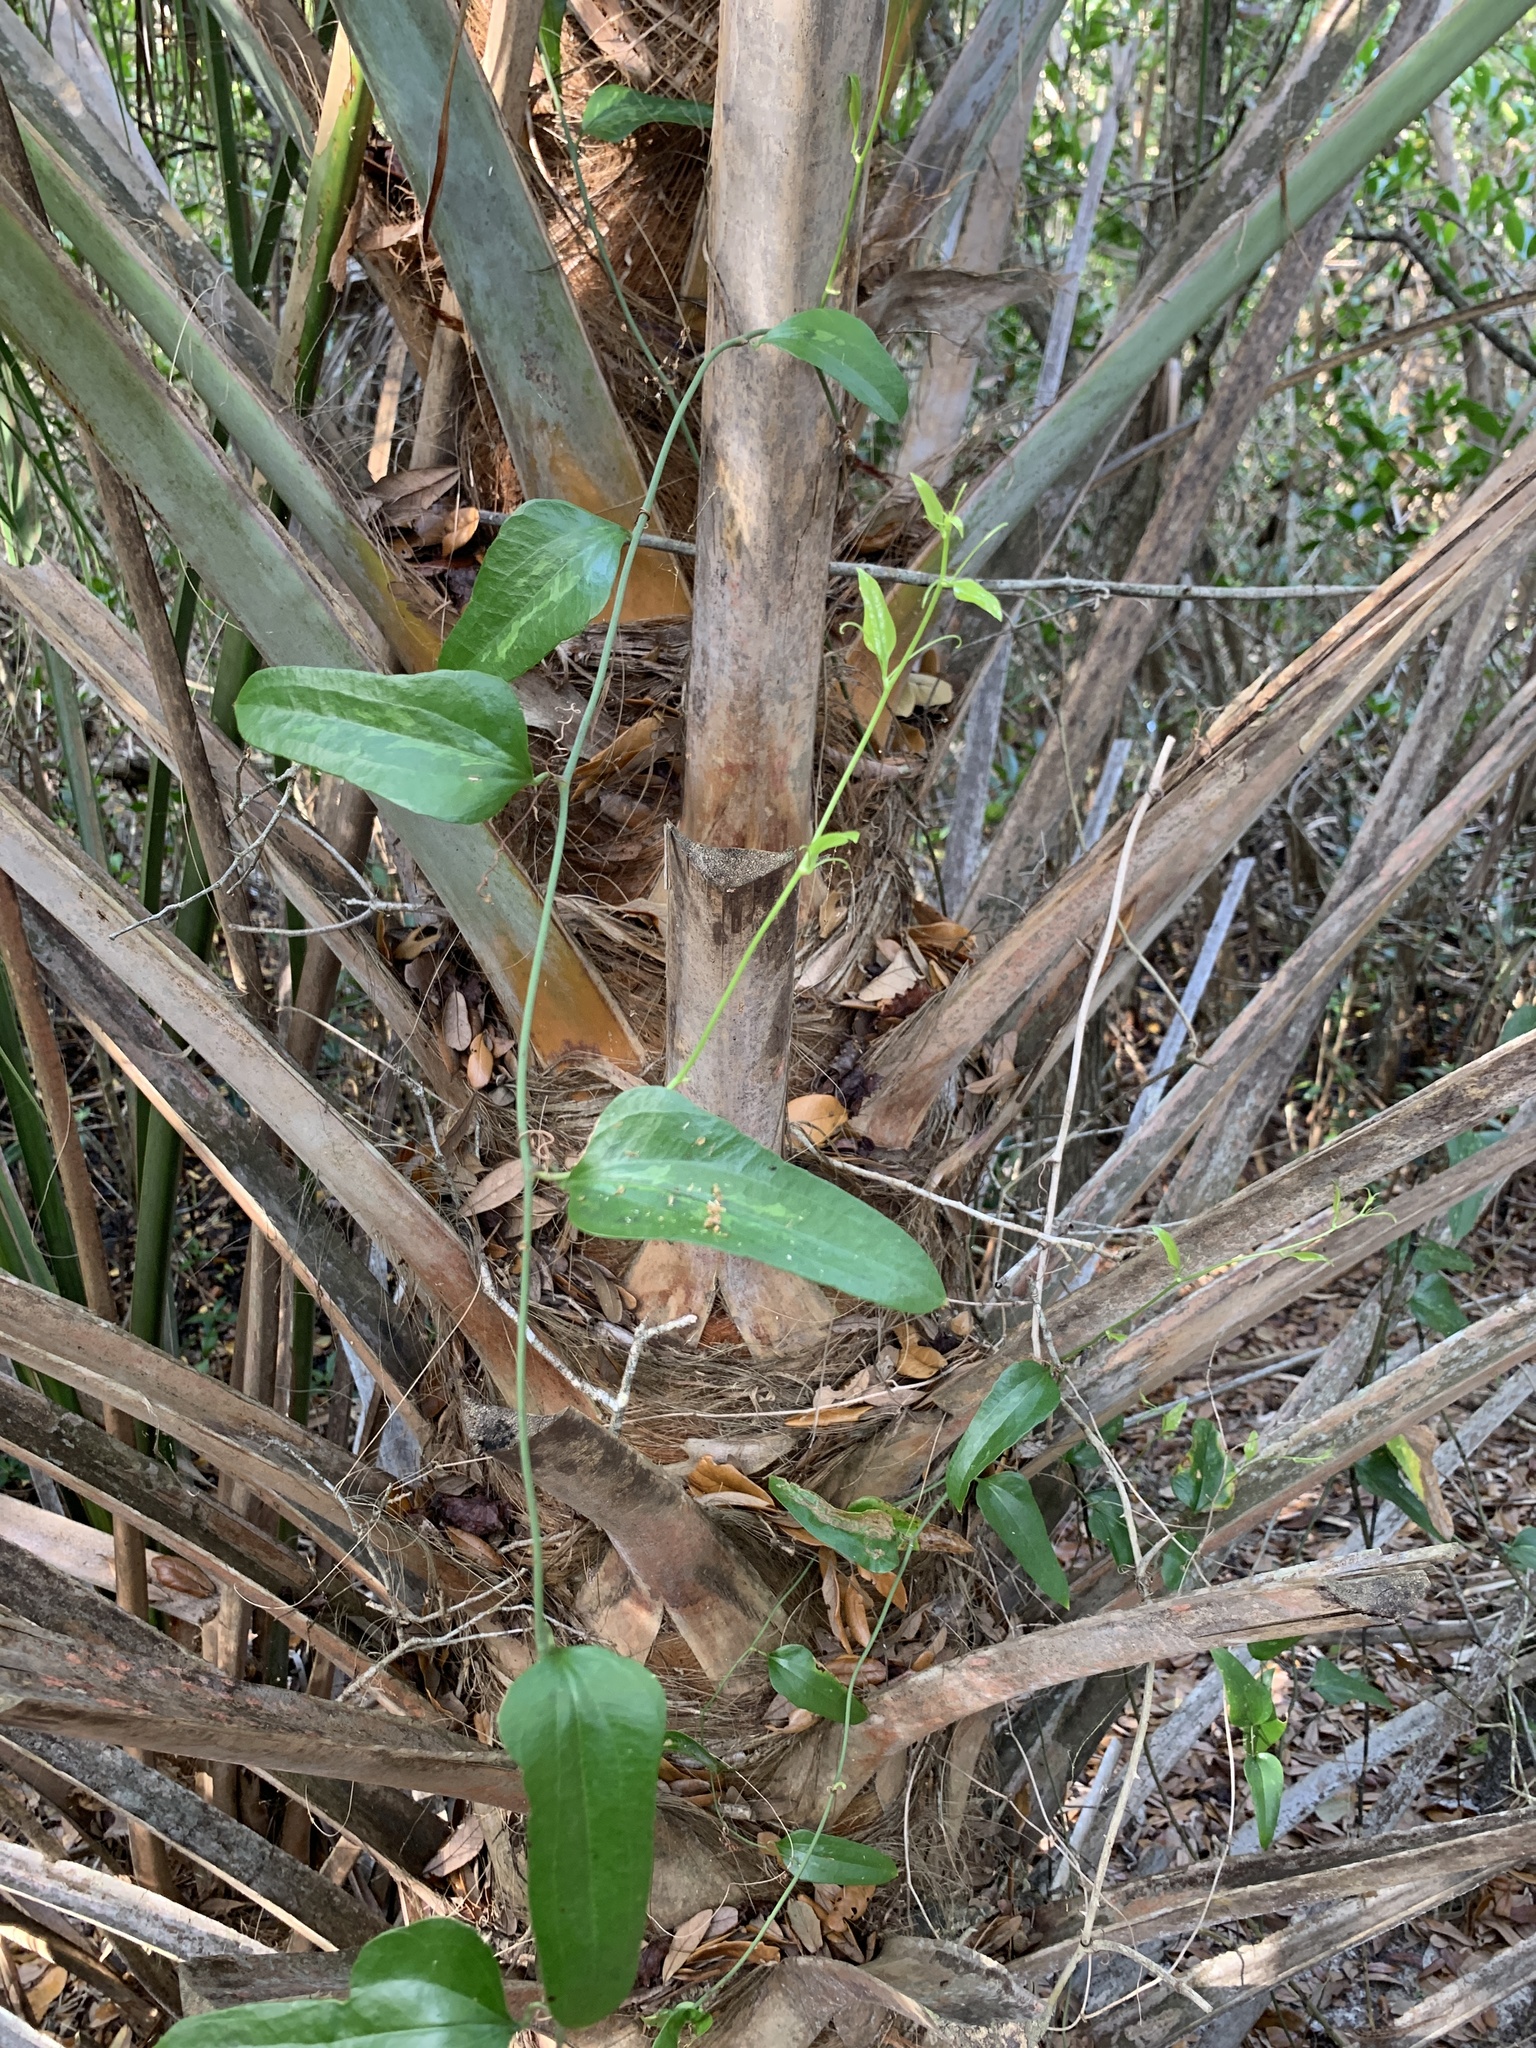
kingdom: Plantae
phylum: Tracheophyta
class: Liliopsida
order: Liliales
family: Smilacaceae
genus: Smilax
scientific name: Smilax auriculata
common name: Wild bamboo
